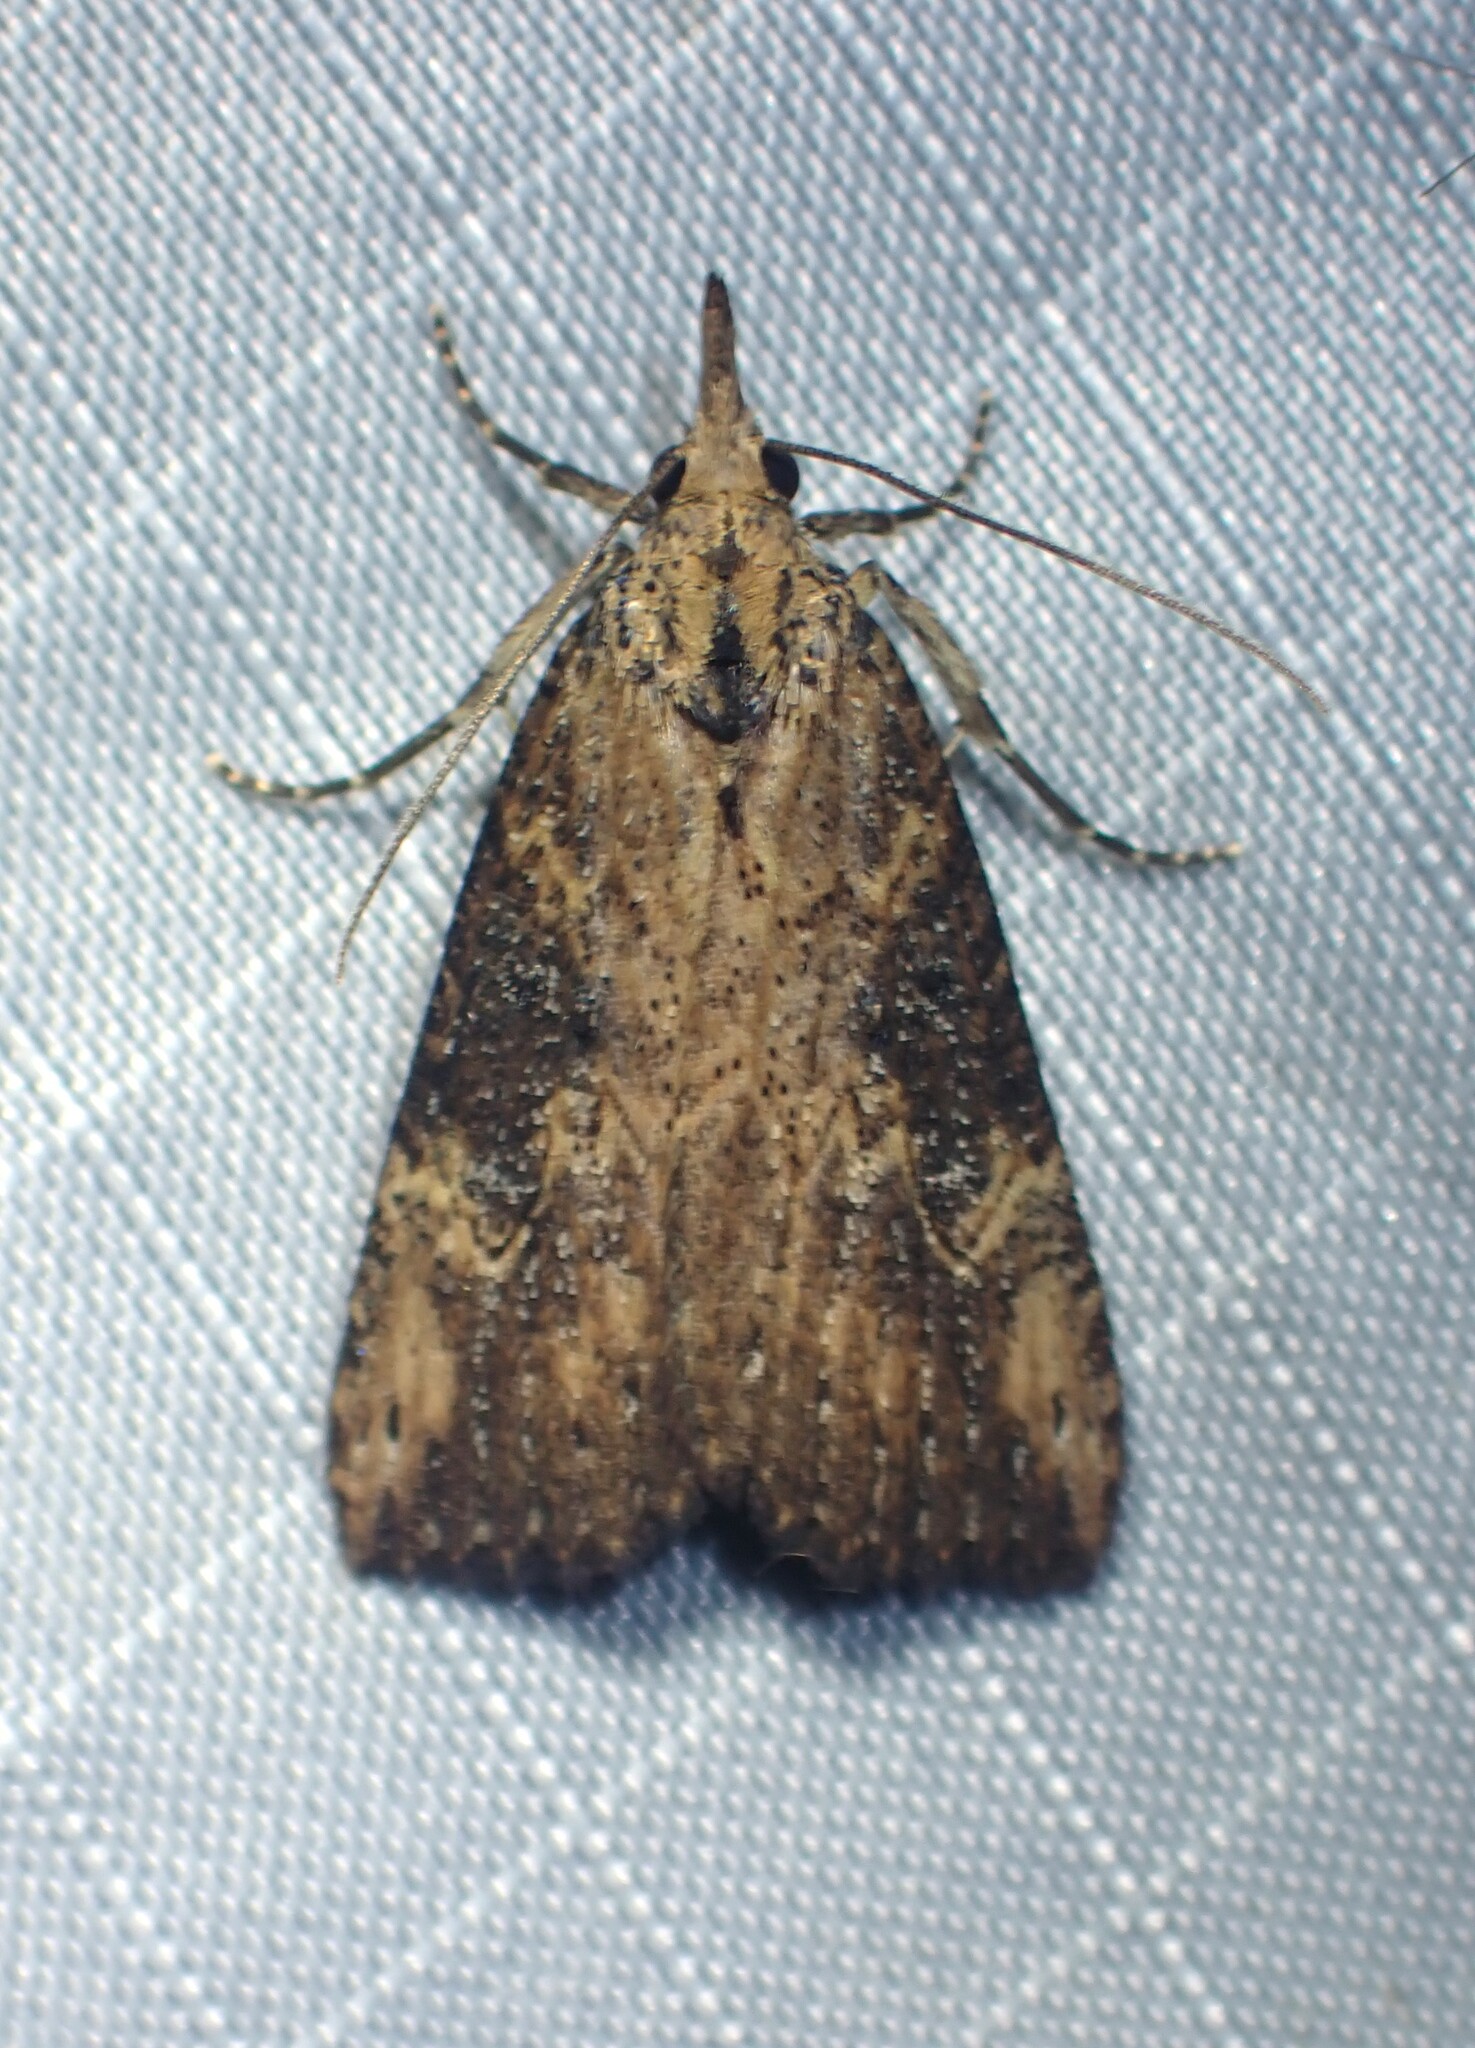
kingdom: Animalia
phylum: Arthropoda
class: Insecta
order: Lepidoptera
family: Erebidae
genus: Hypena
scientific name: Hypena humuli
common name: Hop vine snout
